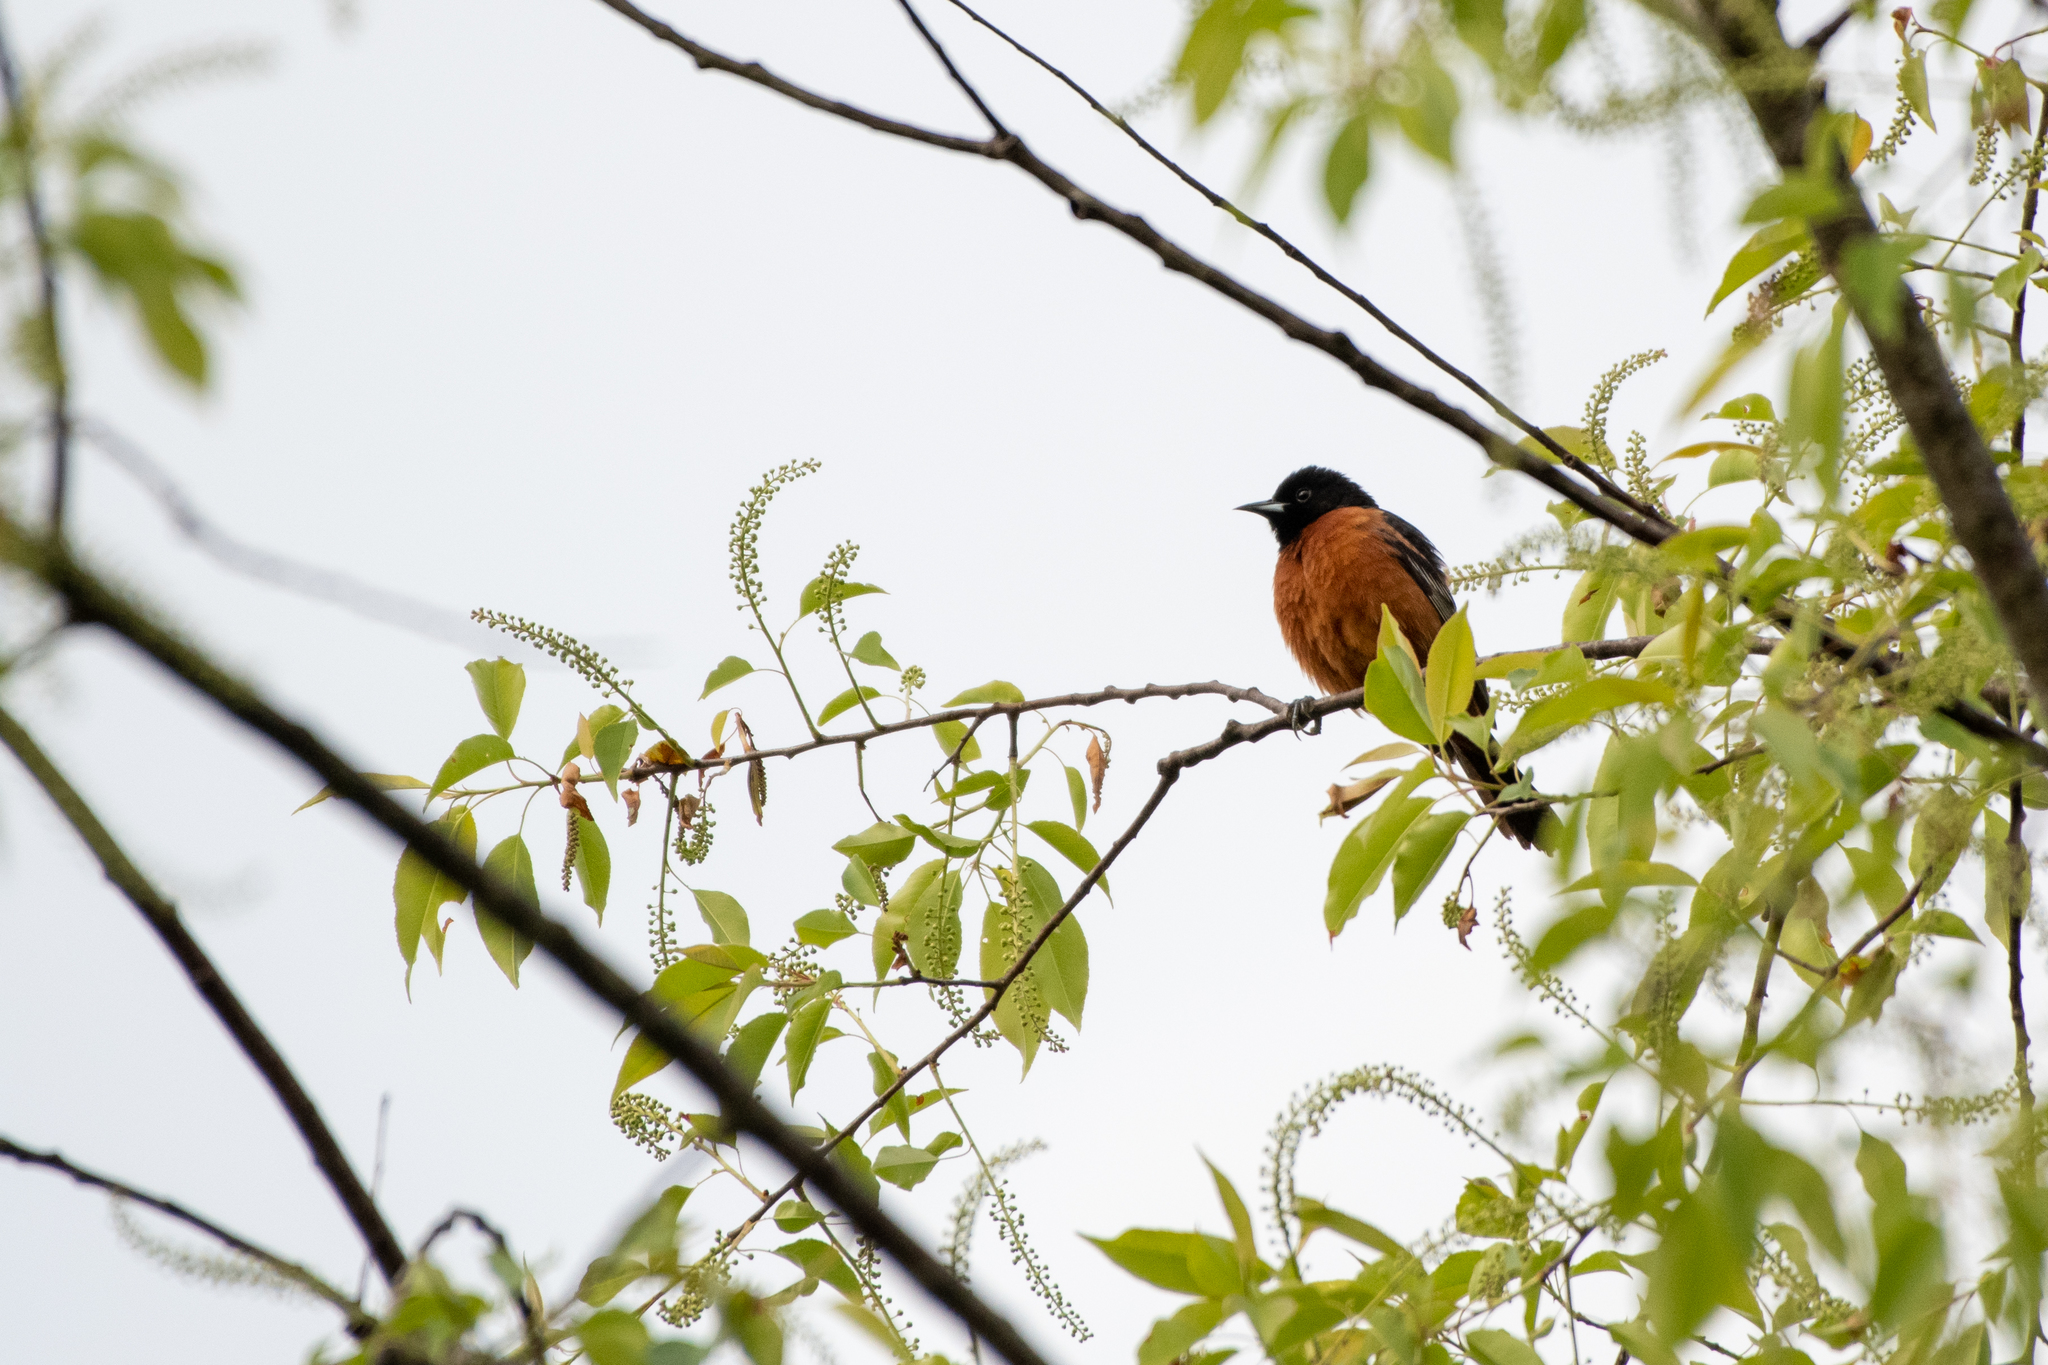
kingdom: Animalia
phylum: Chordata
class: Aves
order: Passeriformes
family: Icteridae
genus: Icterus
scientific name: Icterus spurius
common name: Orchard oriole
